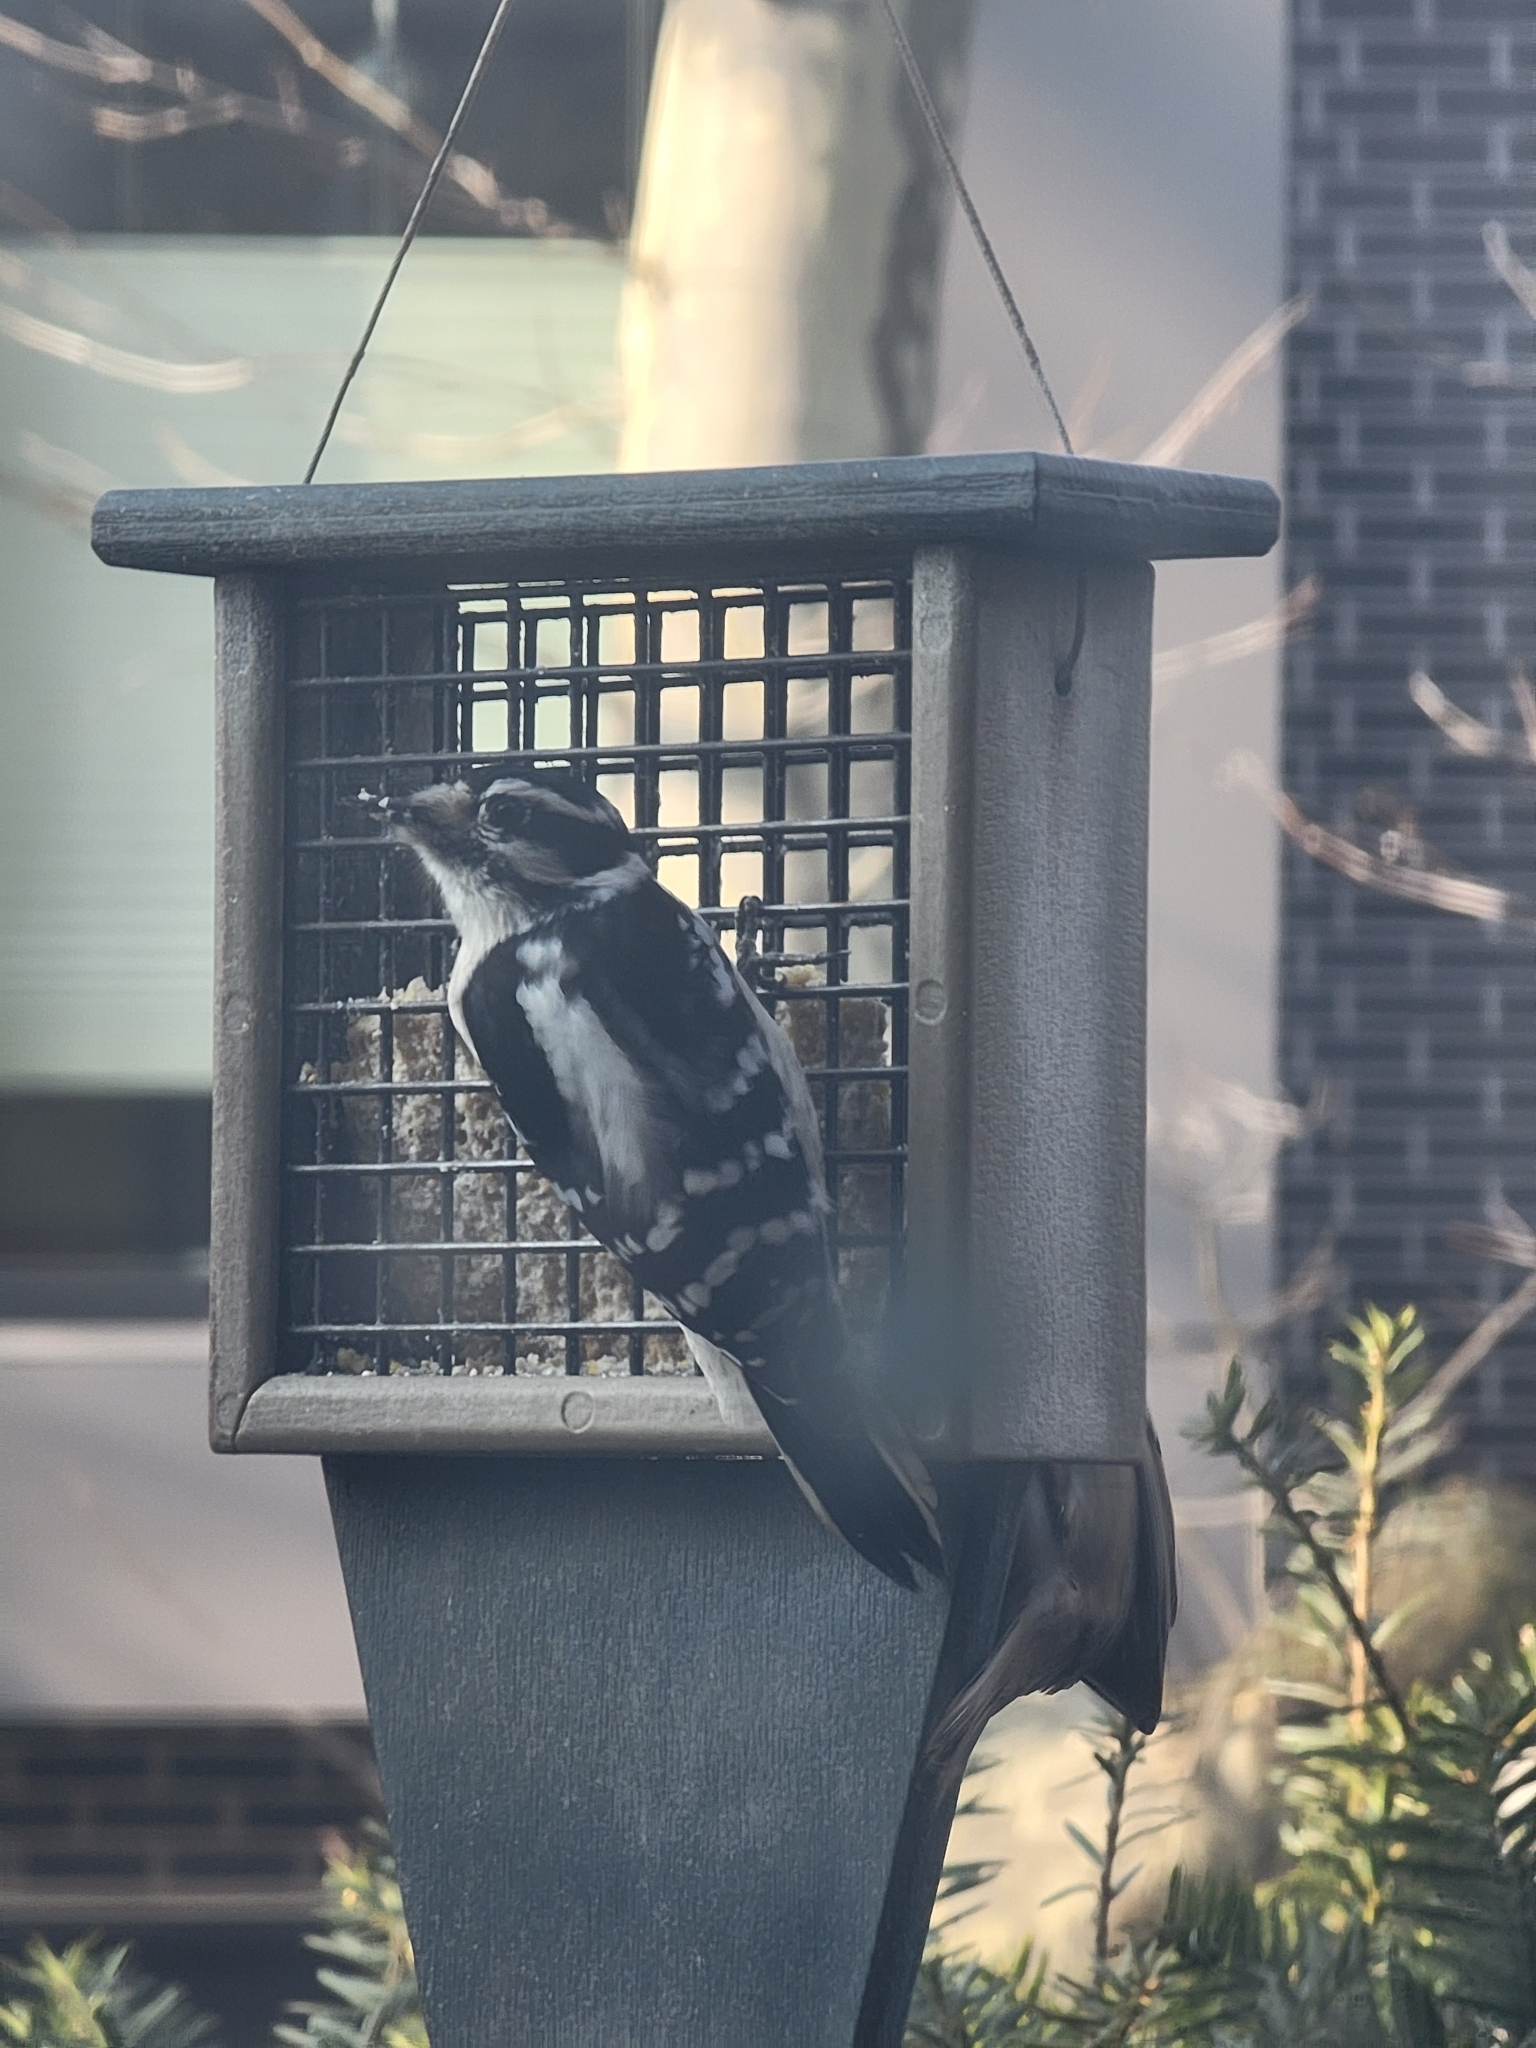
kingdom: Animalia
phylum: Chordata
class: Aves
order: Piciformes
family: Picidae
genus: Dryobates
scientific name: Dryobates pubescens
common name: Downy woodpecker
